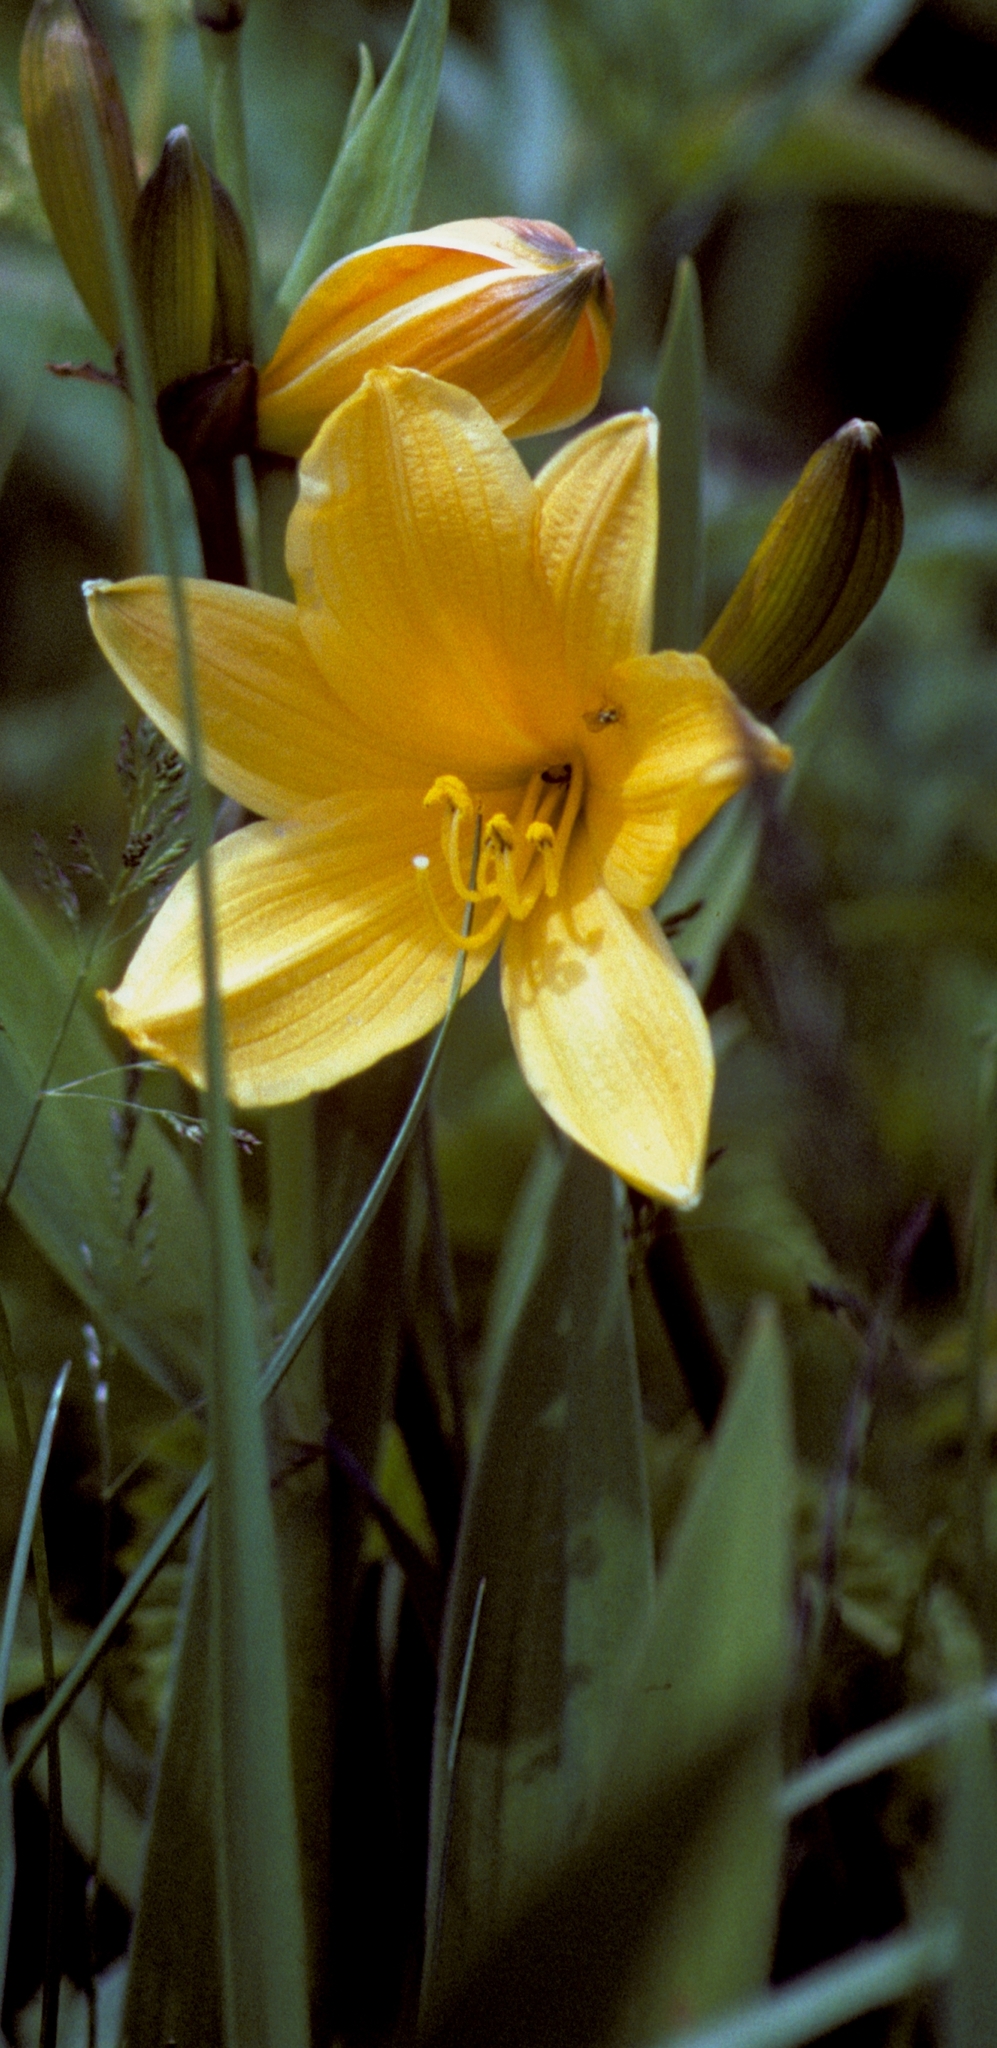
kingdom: Plantae
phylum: Tracheophyta
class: Liliopsida
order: Asparagales
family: Asphodelaceae
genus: Hemerocallis
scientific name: Hemerocallis middendorffii
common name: Amur day-lily
